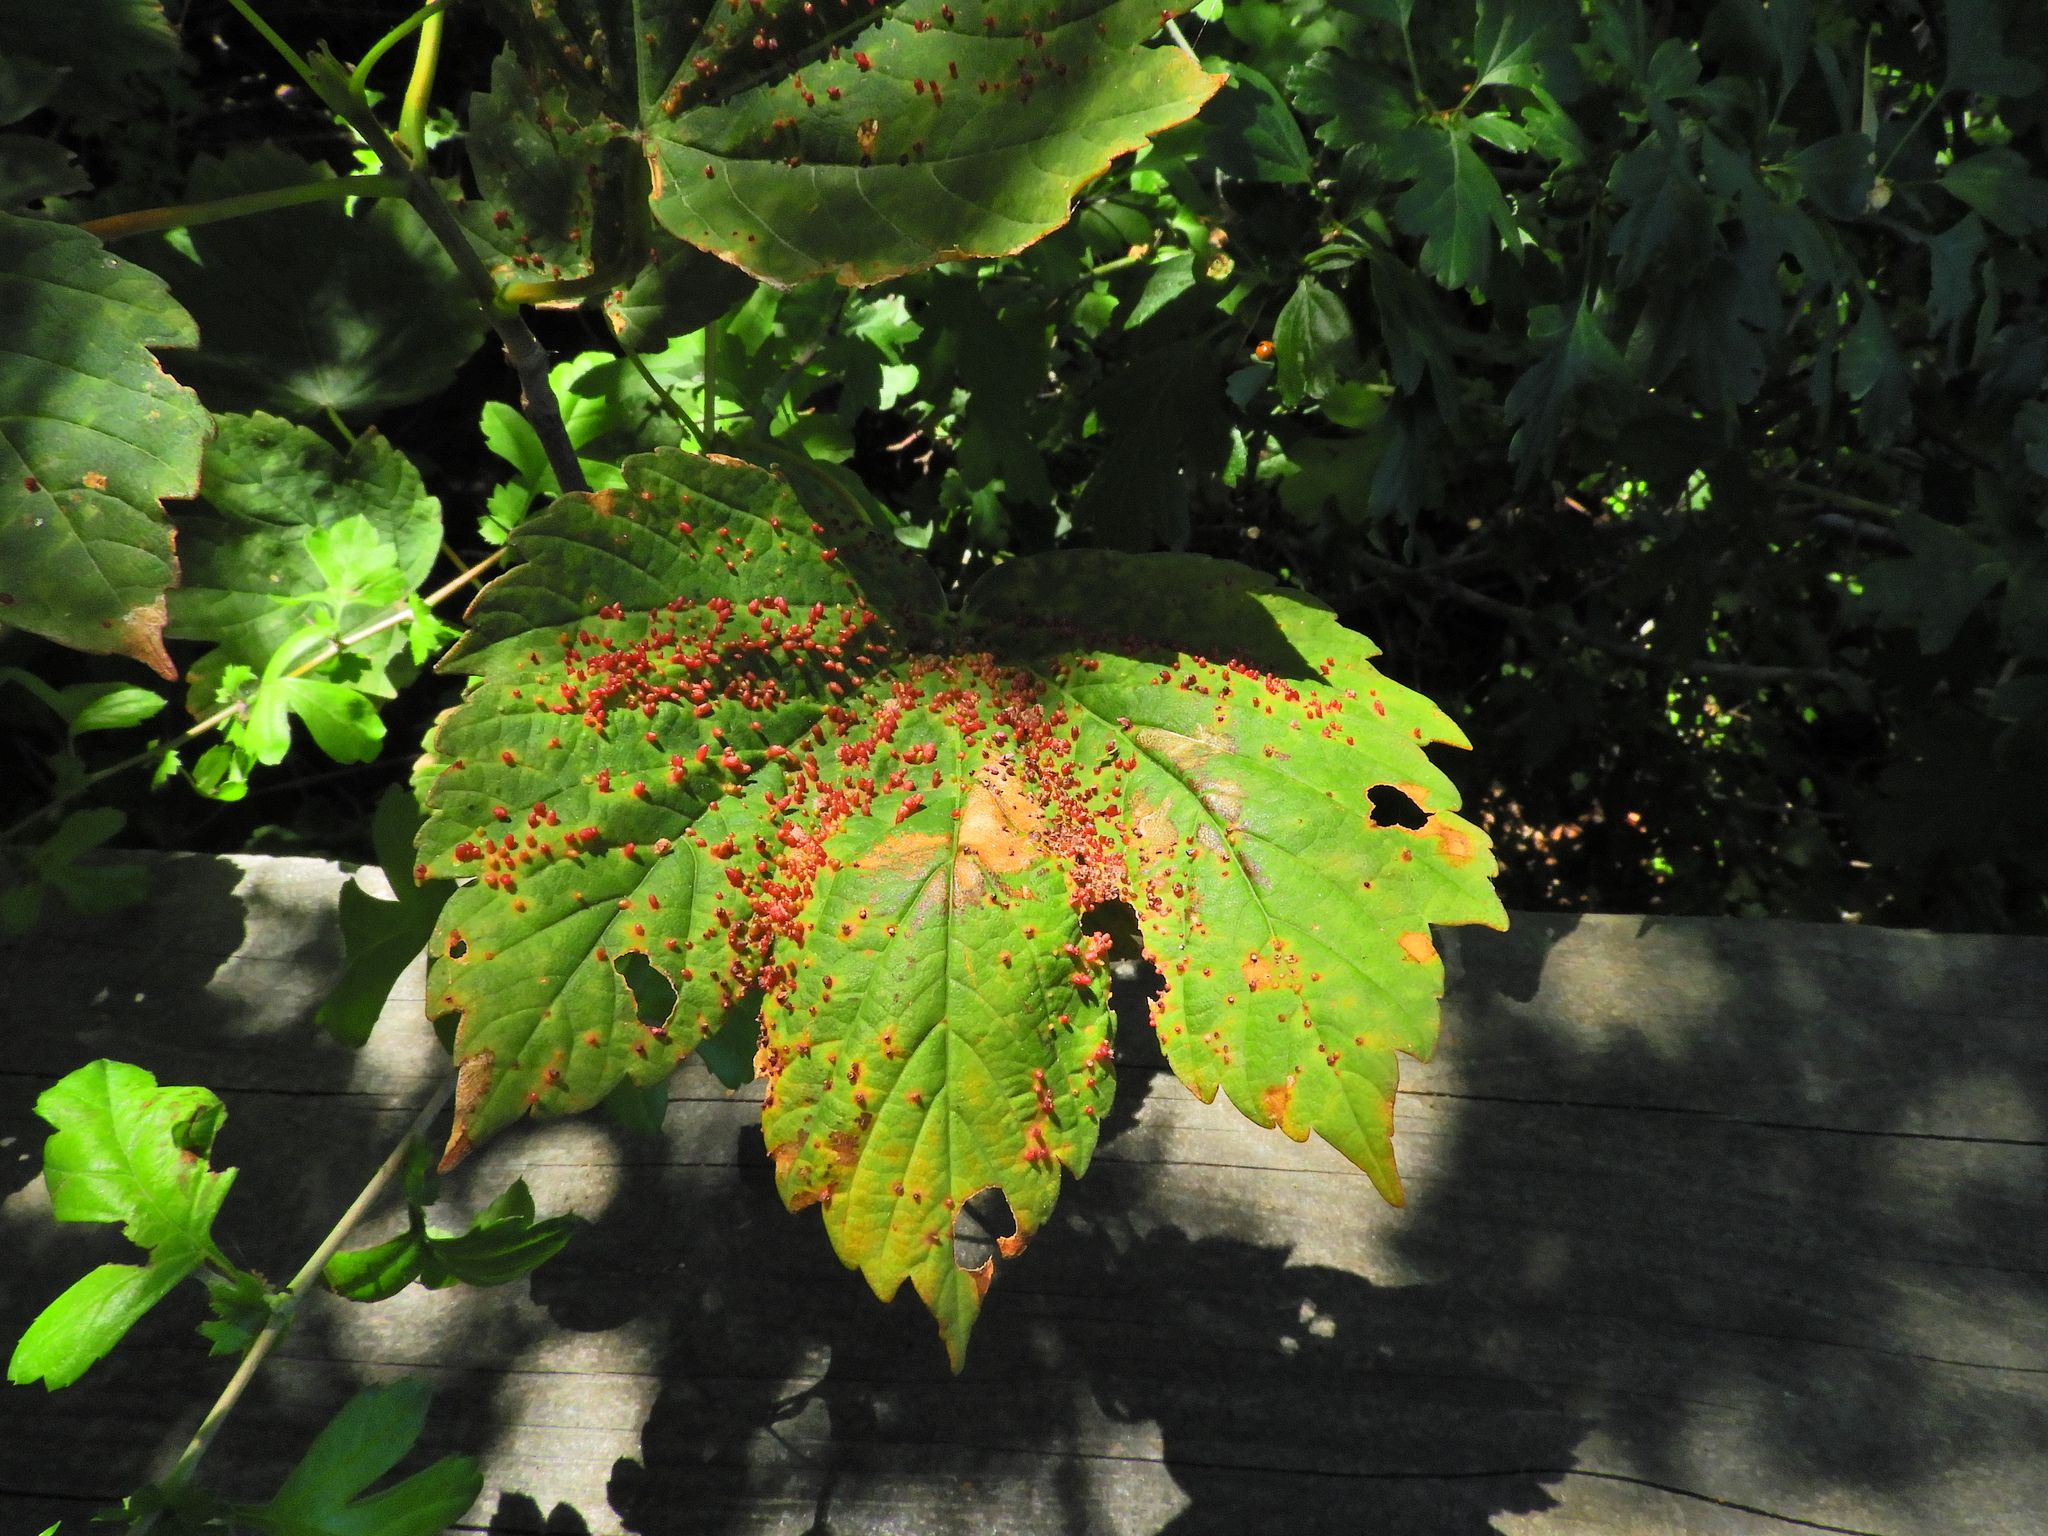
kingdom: Plantae
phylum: Tracheophyta
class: Magnoliopsida
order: Sapindales
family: Sapindaceae
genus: Acer
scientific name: Acer pseudoplatanus
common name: Sycamore
